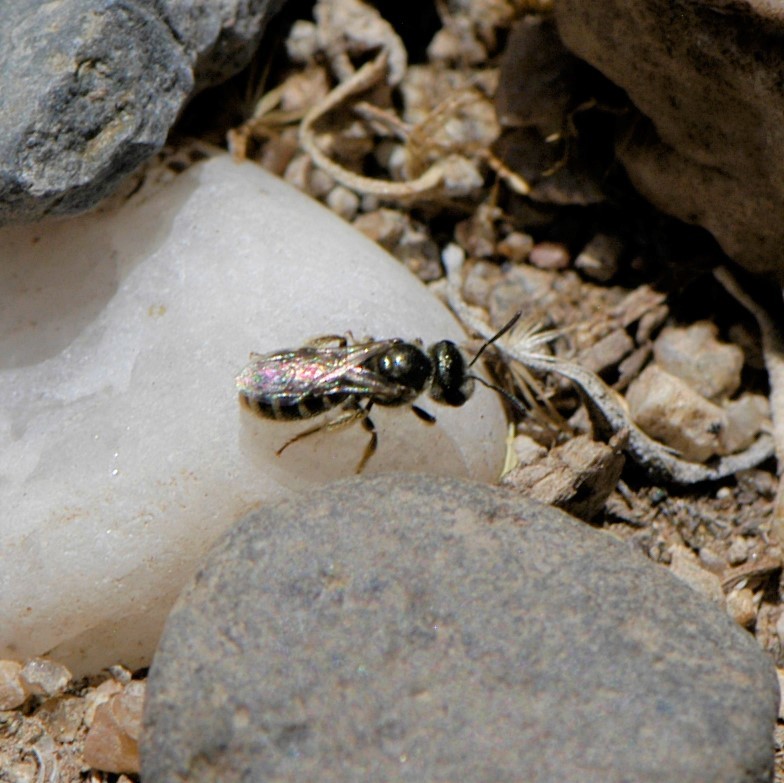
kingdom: Animalia
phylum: Arthropoda
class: Insecta
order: Hymenoptera
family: Halictidae
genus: Halictus
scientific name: Halictus tripartitus
